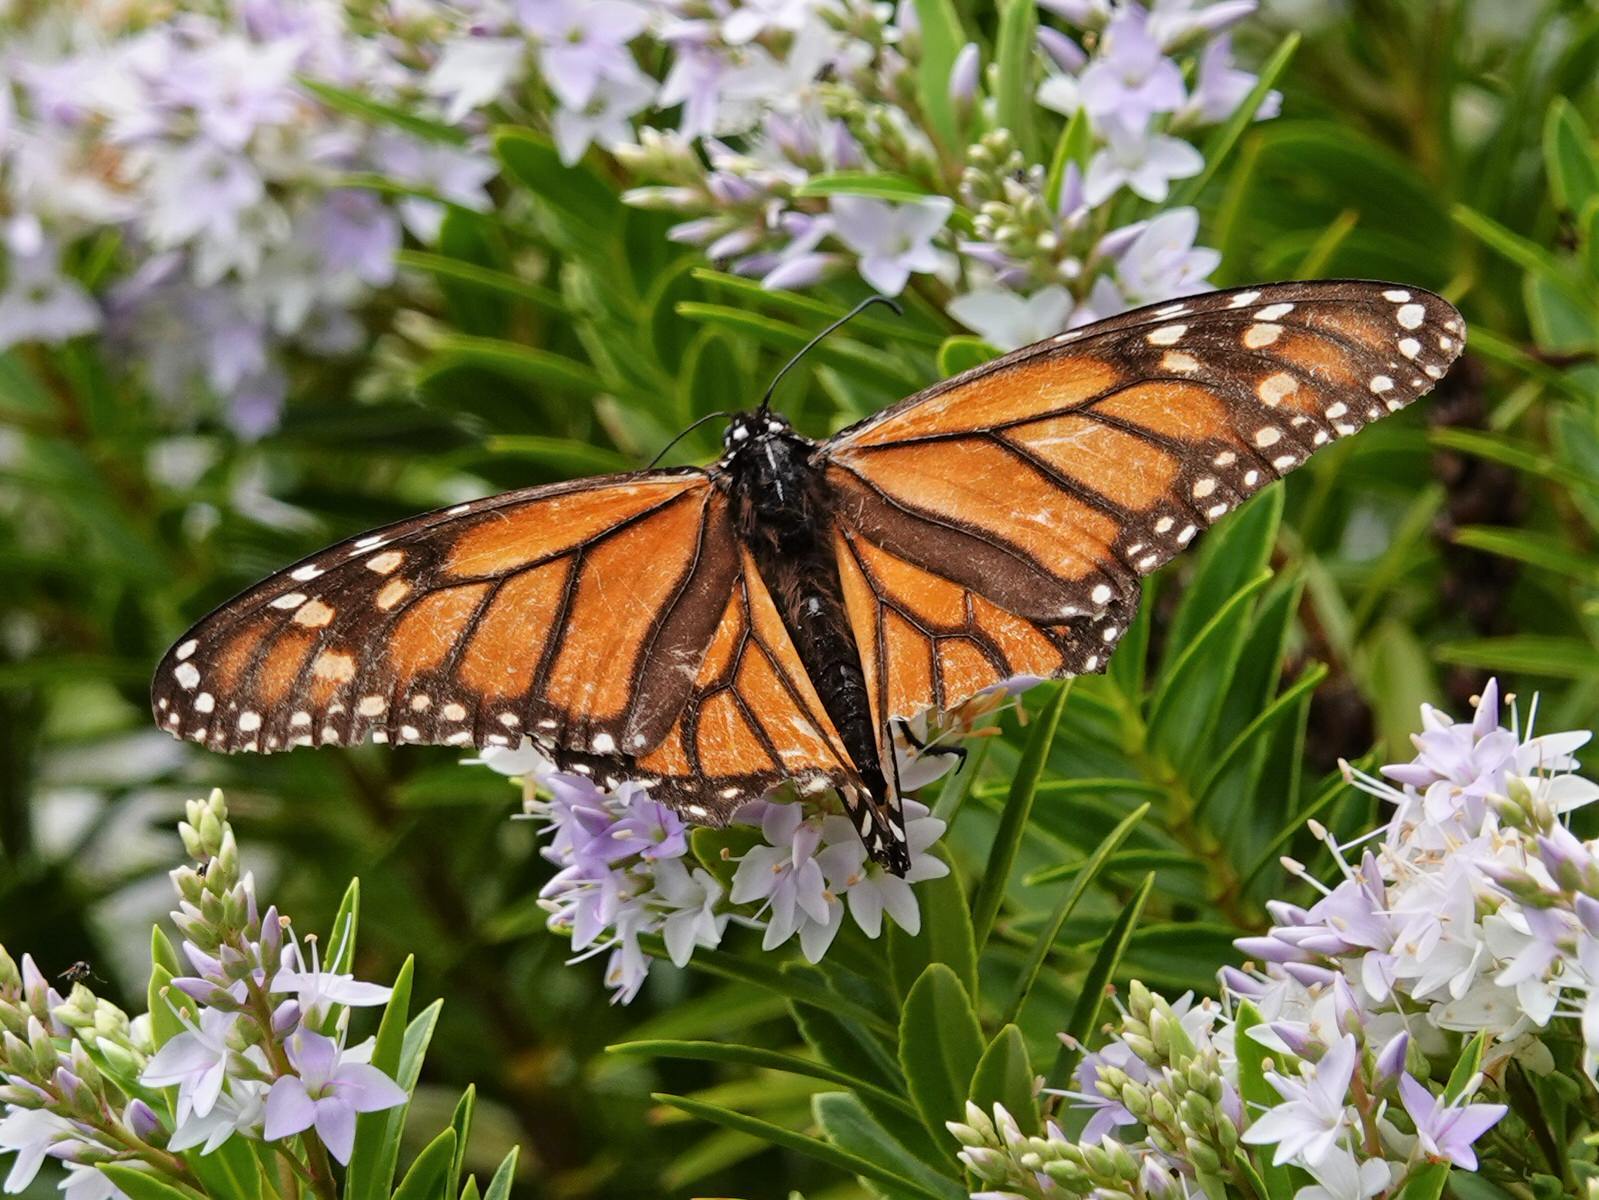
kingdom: Animalia
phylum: Arthropoda
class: Insecta
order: Lepidoptera
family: Nymphalidae
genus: Danaus
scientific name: Danaus plexippus
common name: Monarch
